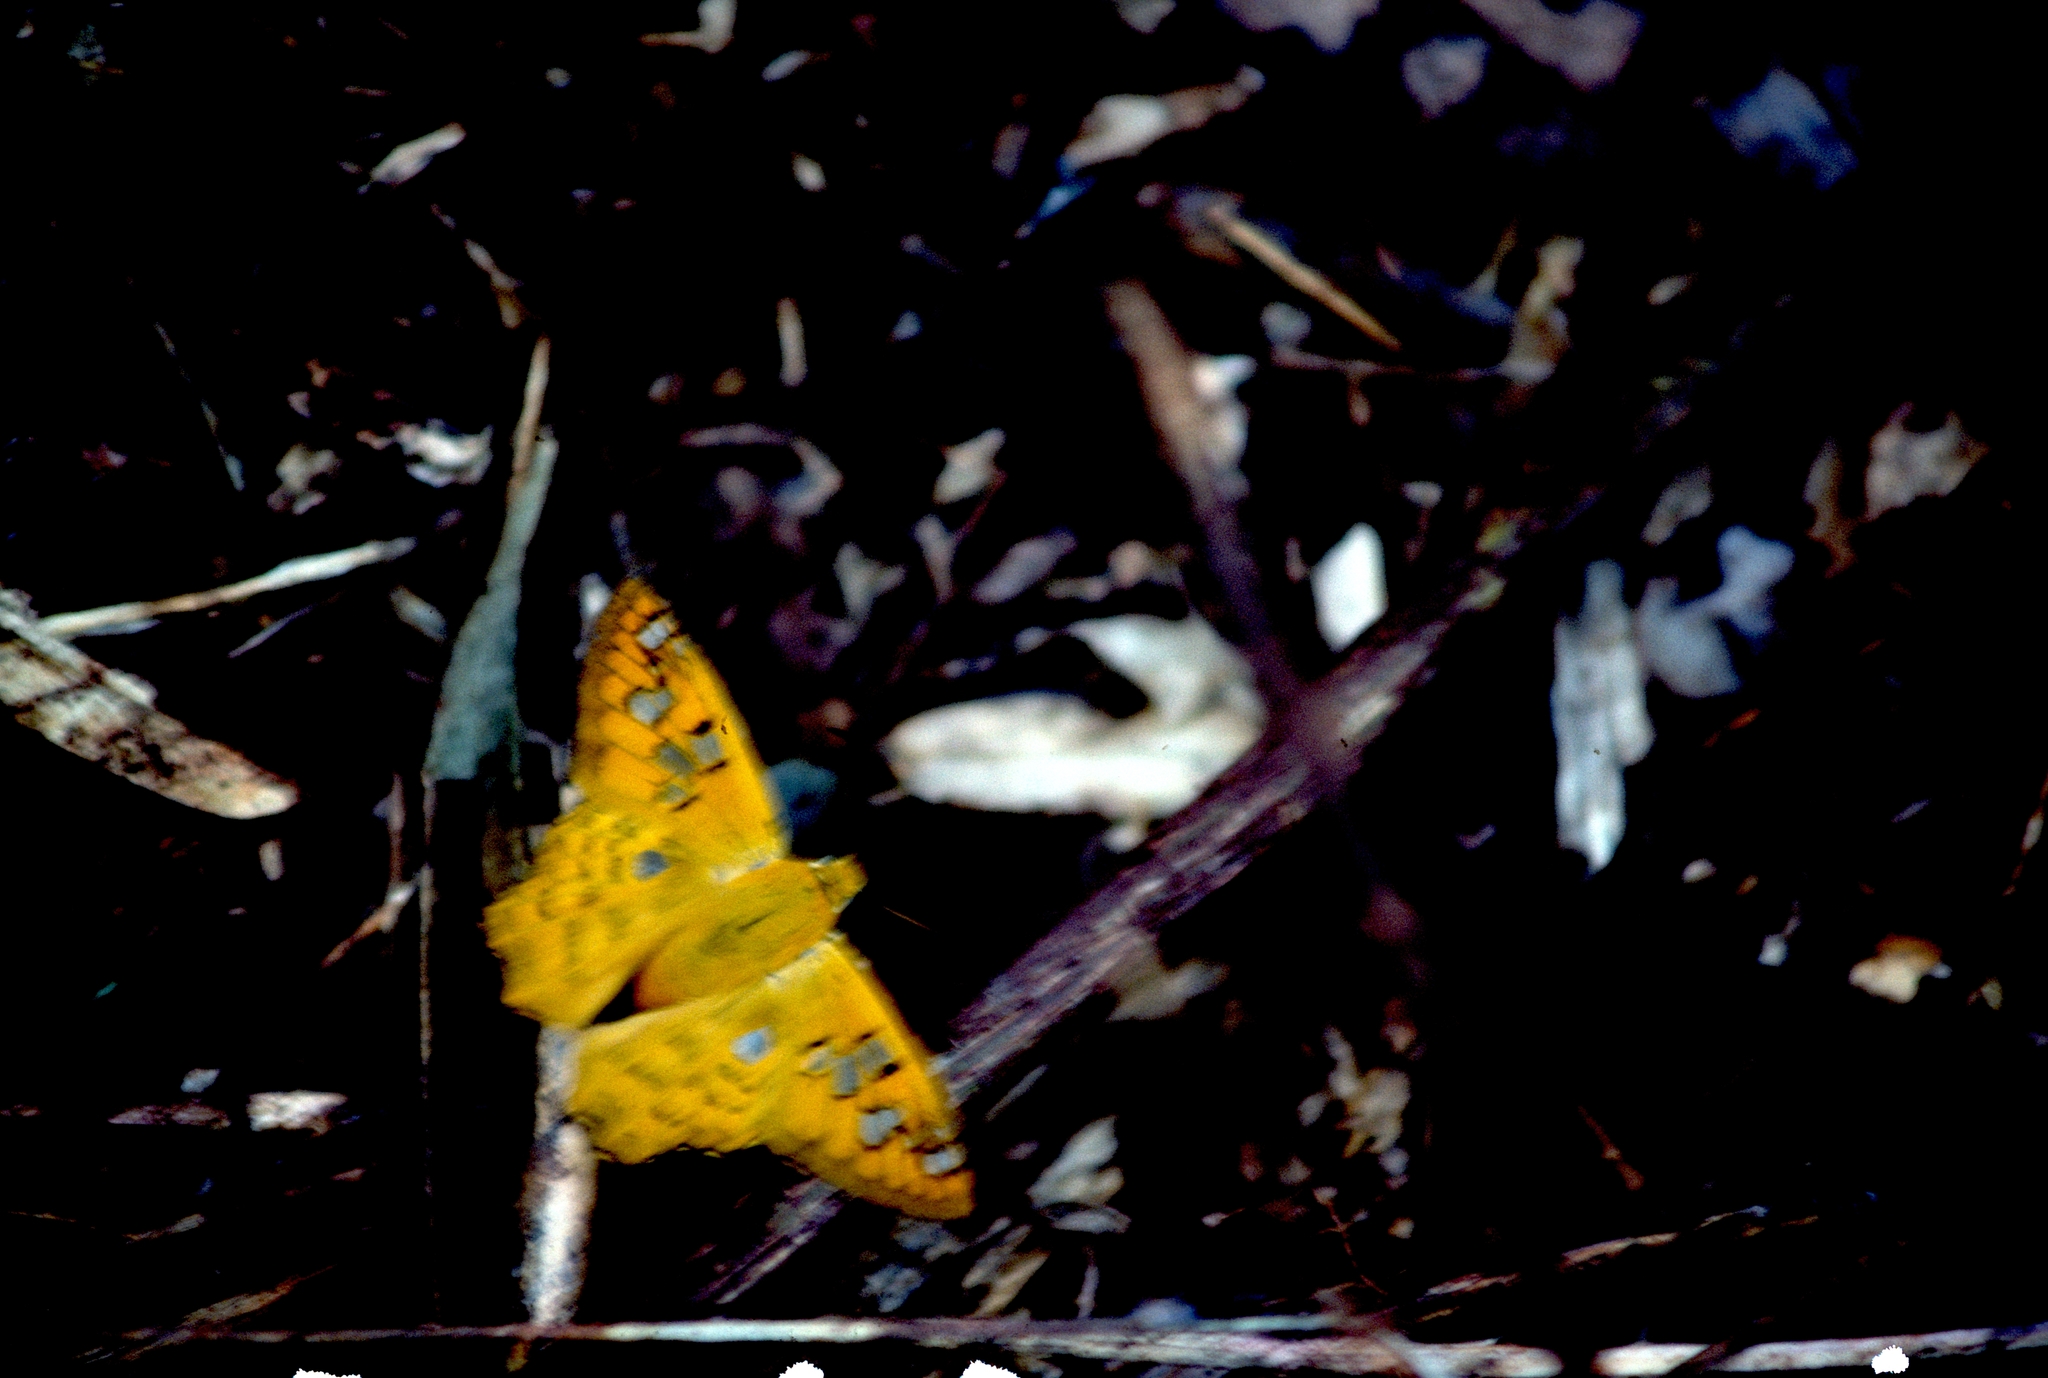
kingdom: Animalia
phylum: Arthropoda
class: Insecta
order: Lepidoptera
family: Hesperiidae
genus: Myscelus
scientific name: Myscelus amystis
